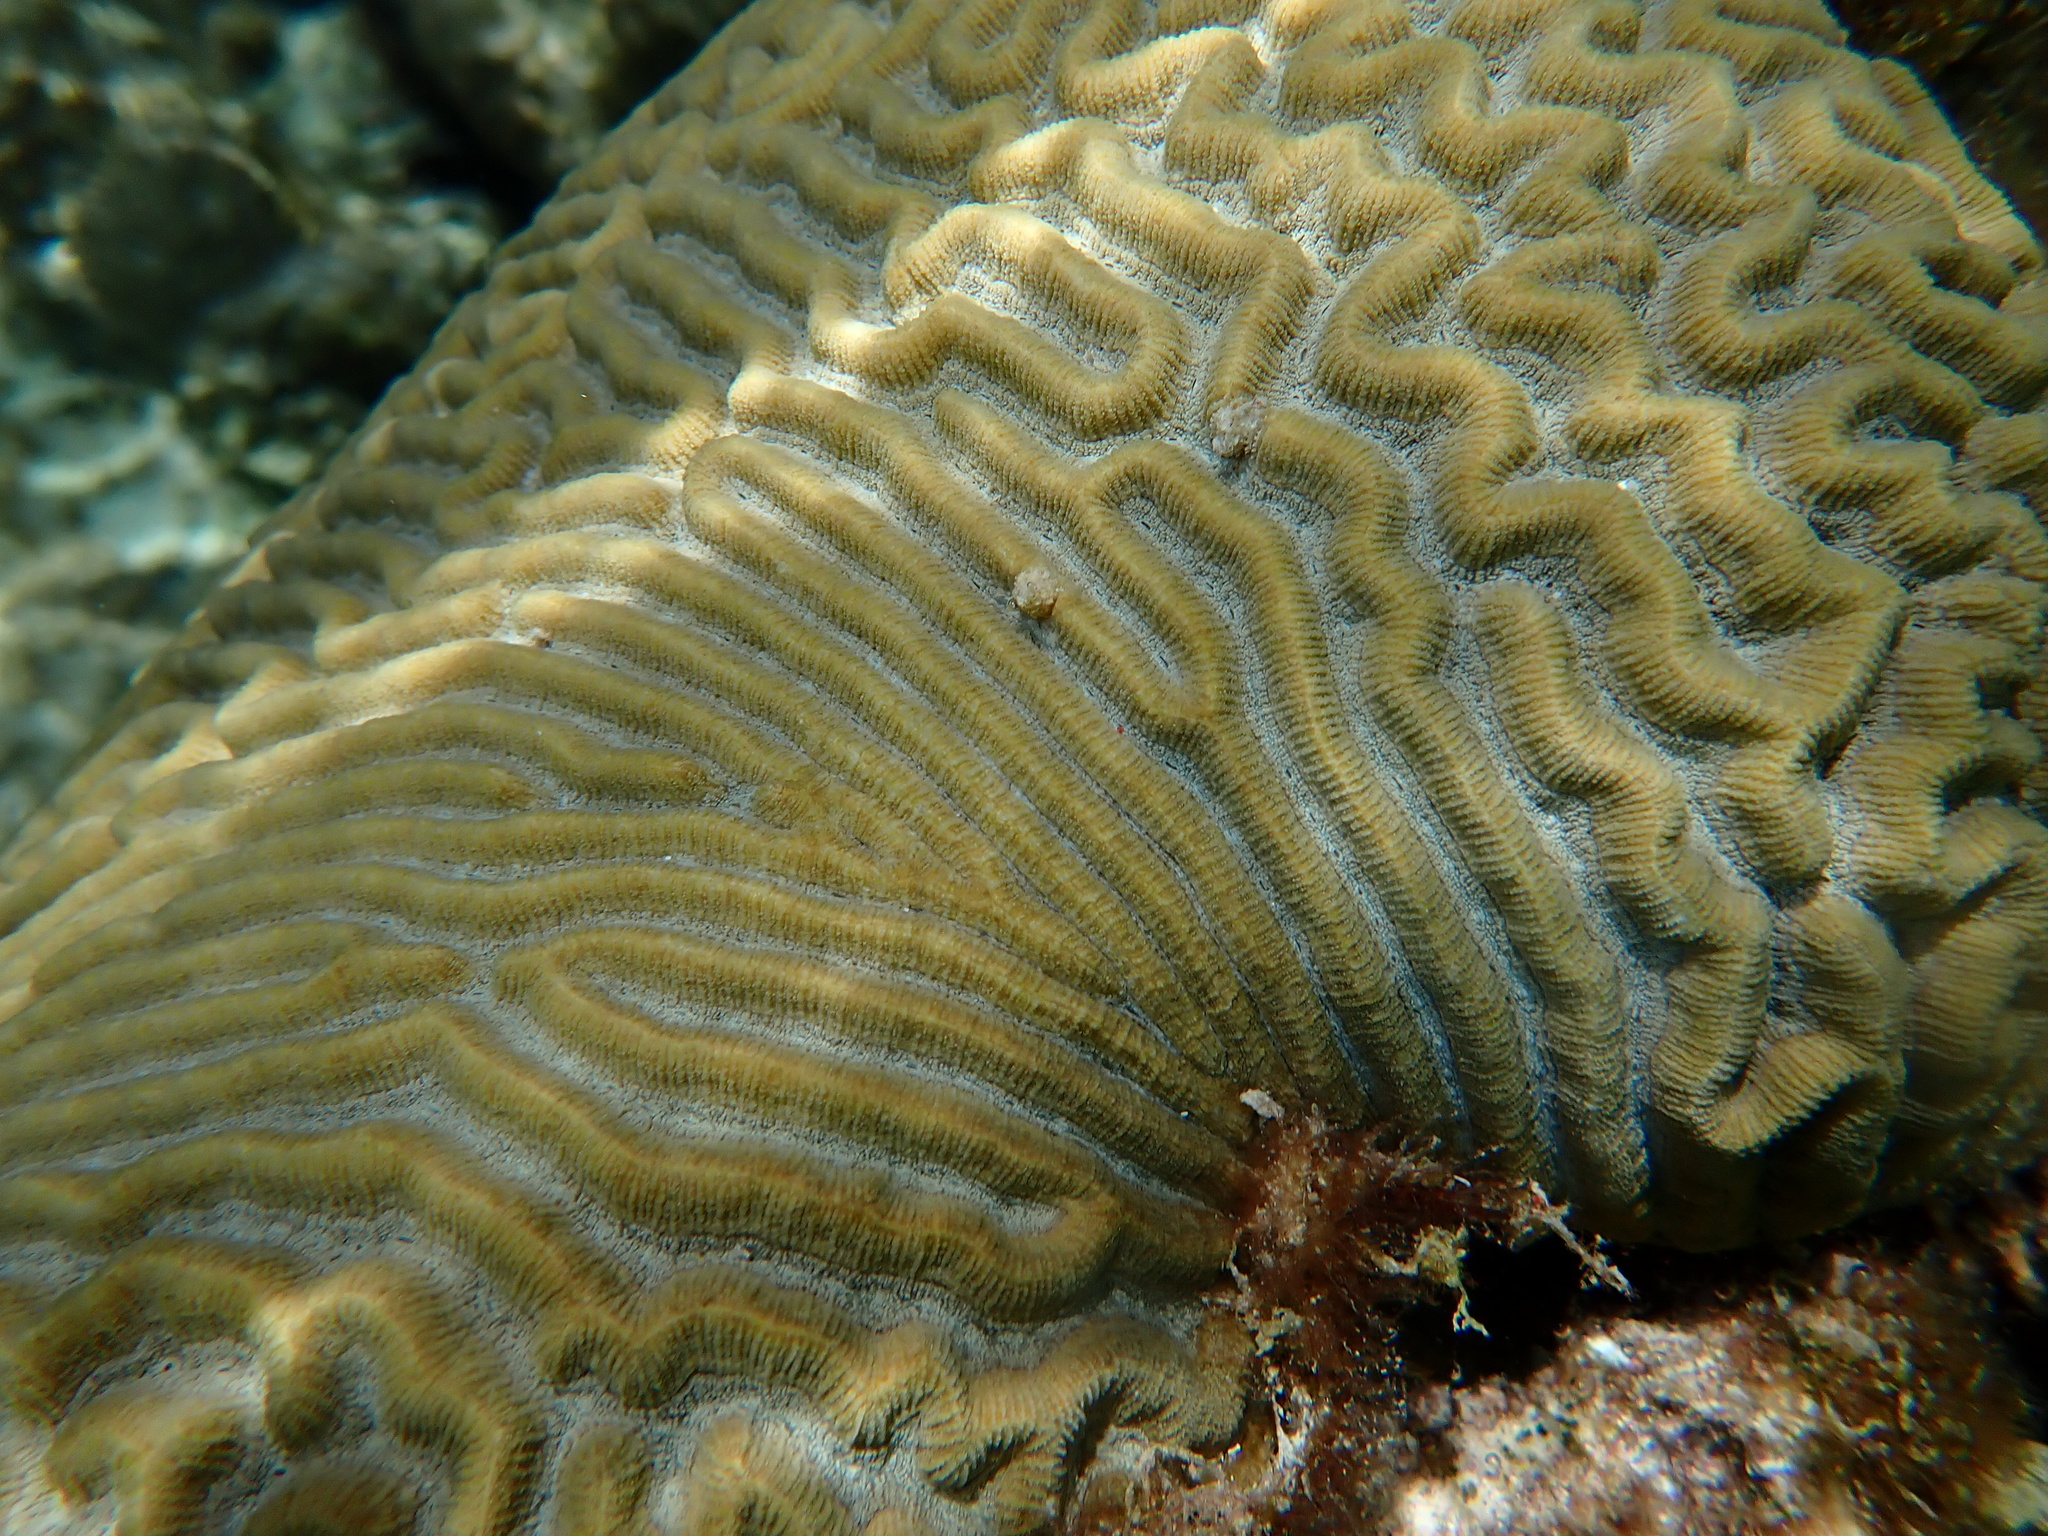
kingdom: Animalia
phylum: Cnidaria
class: Anthozoa
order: Scleractinia
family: Faviidae
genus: Pseudodiploria
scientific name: Pseudodiploria strigosa
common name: Symmetrical brain coral
